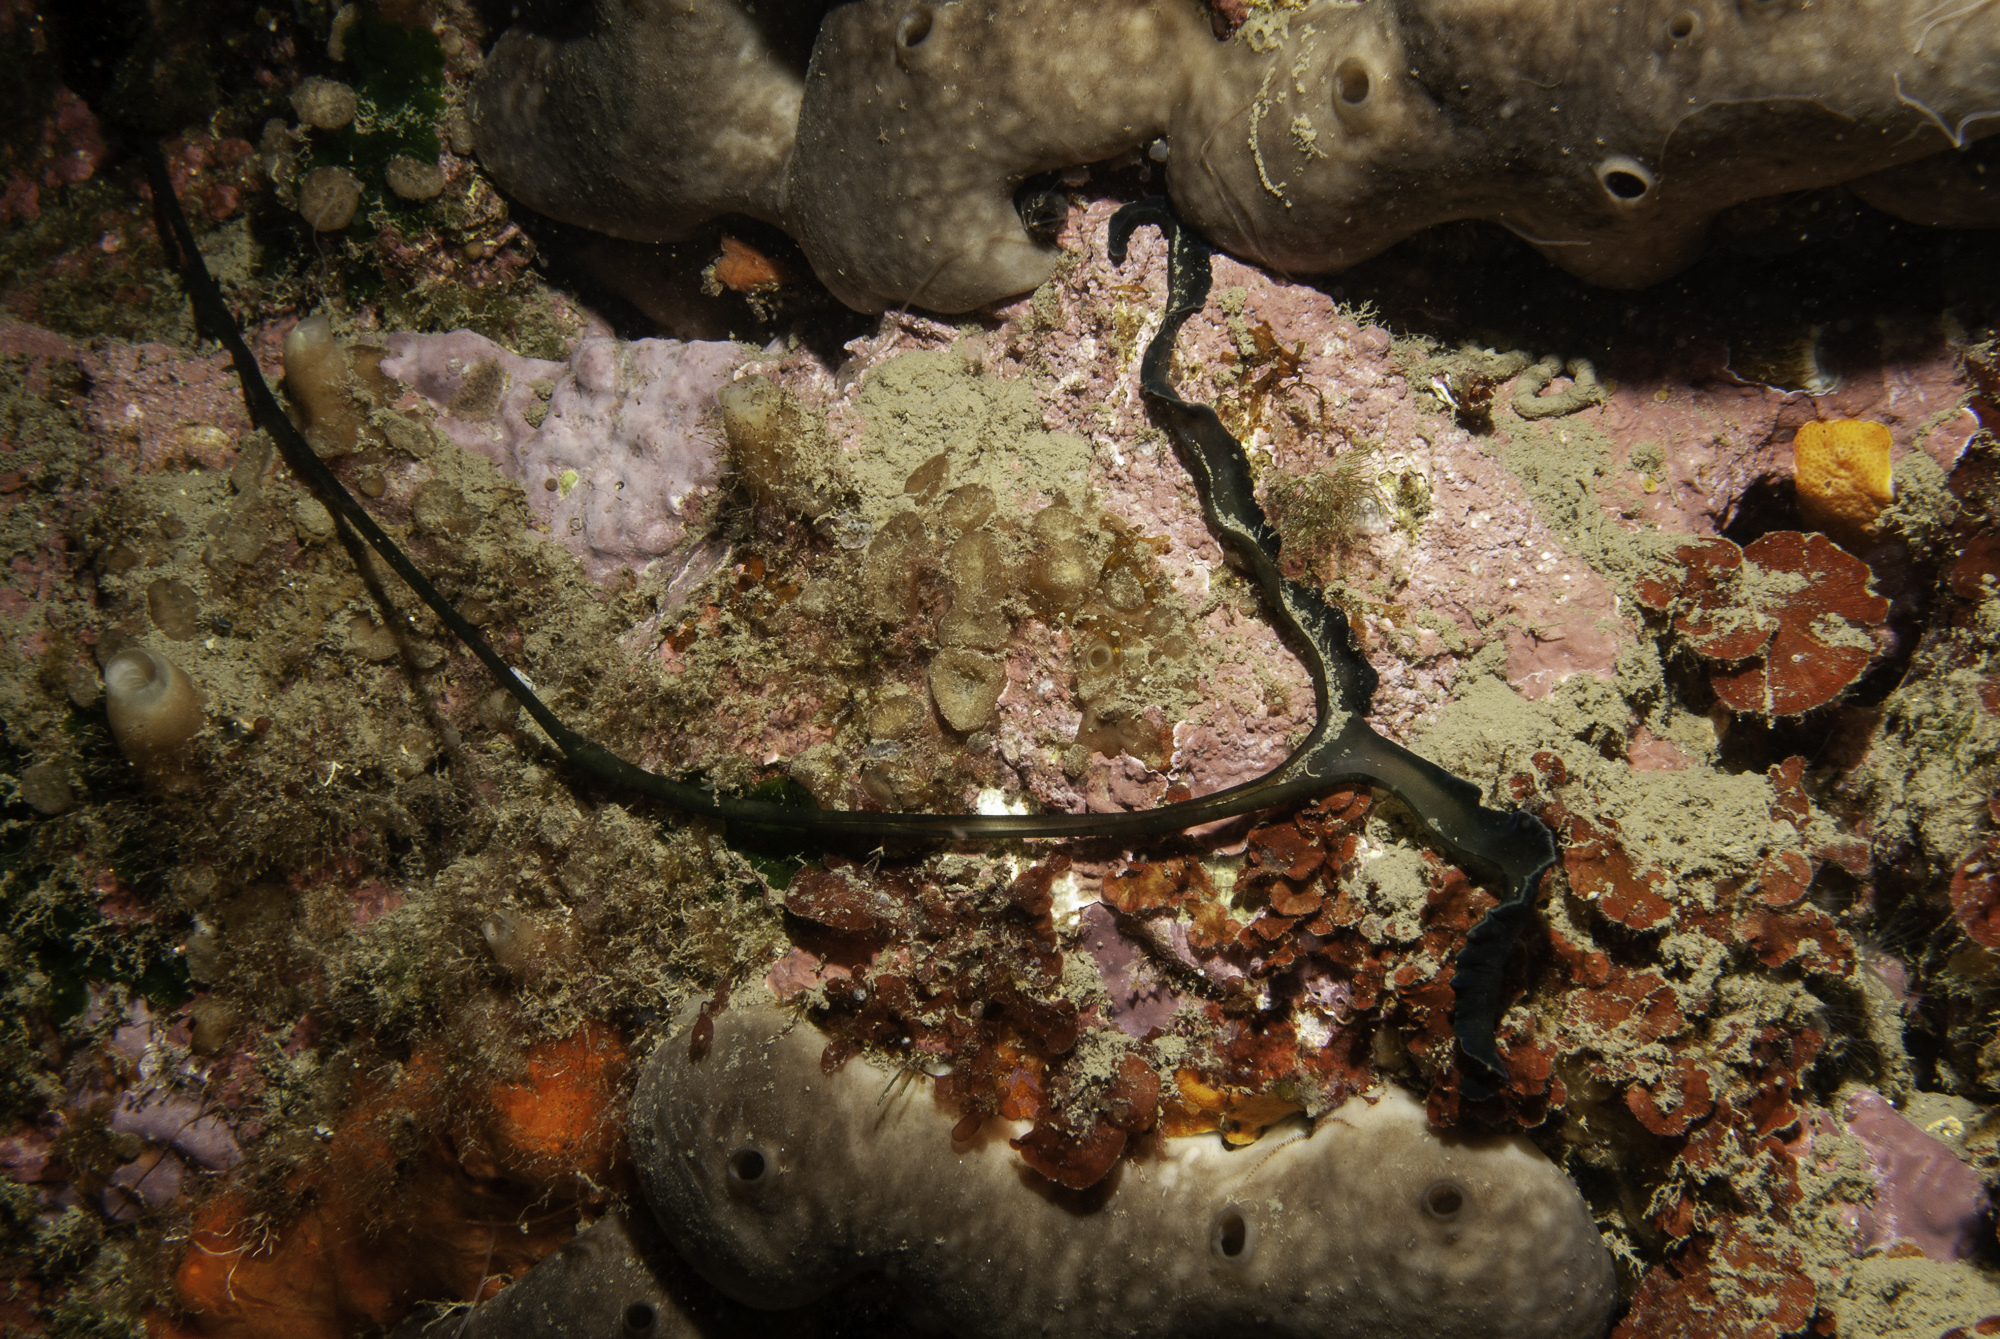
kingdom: Animalia
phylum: Annelida
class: Polychaeta
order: Echiuroidea
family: Bonelliidae
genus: Bonellia
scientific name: Bonellia viridis
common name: Green spoon worm
